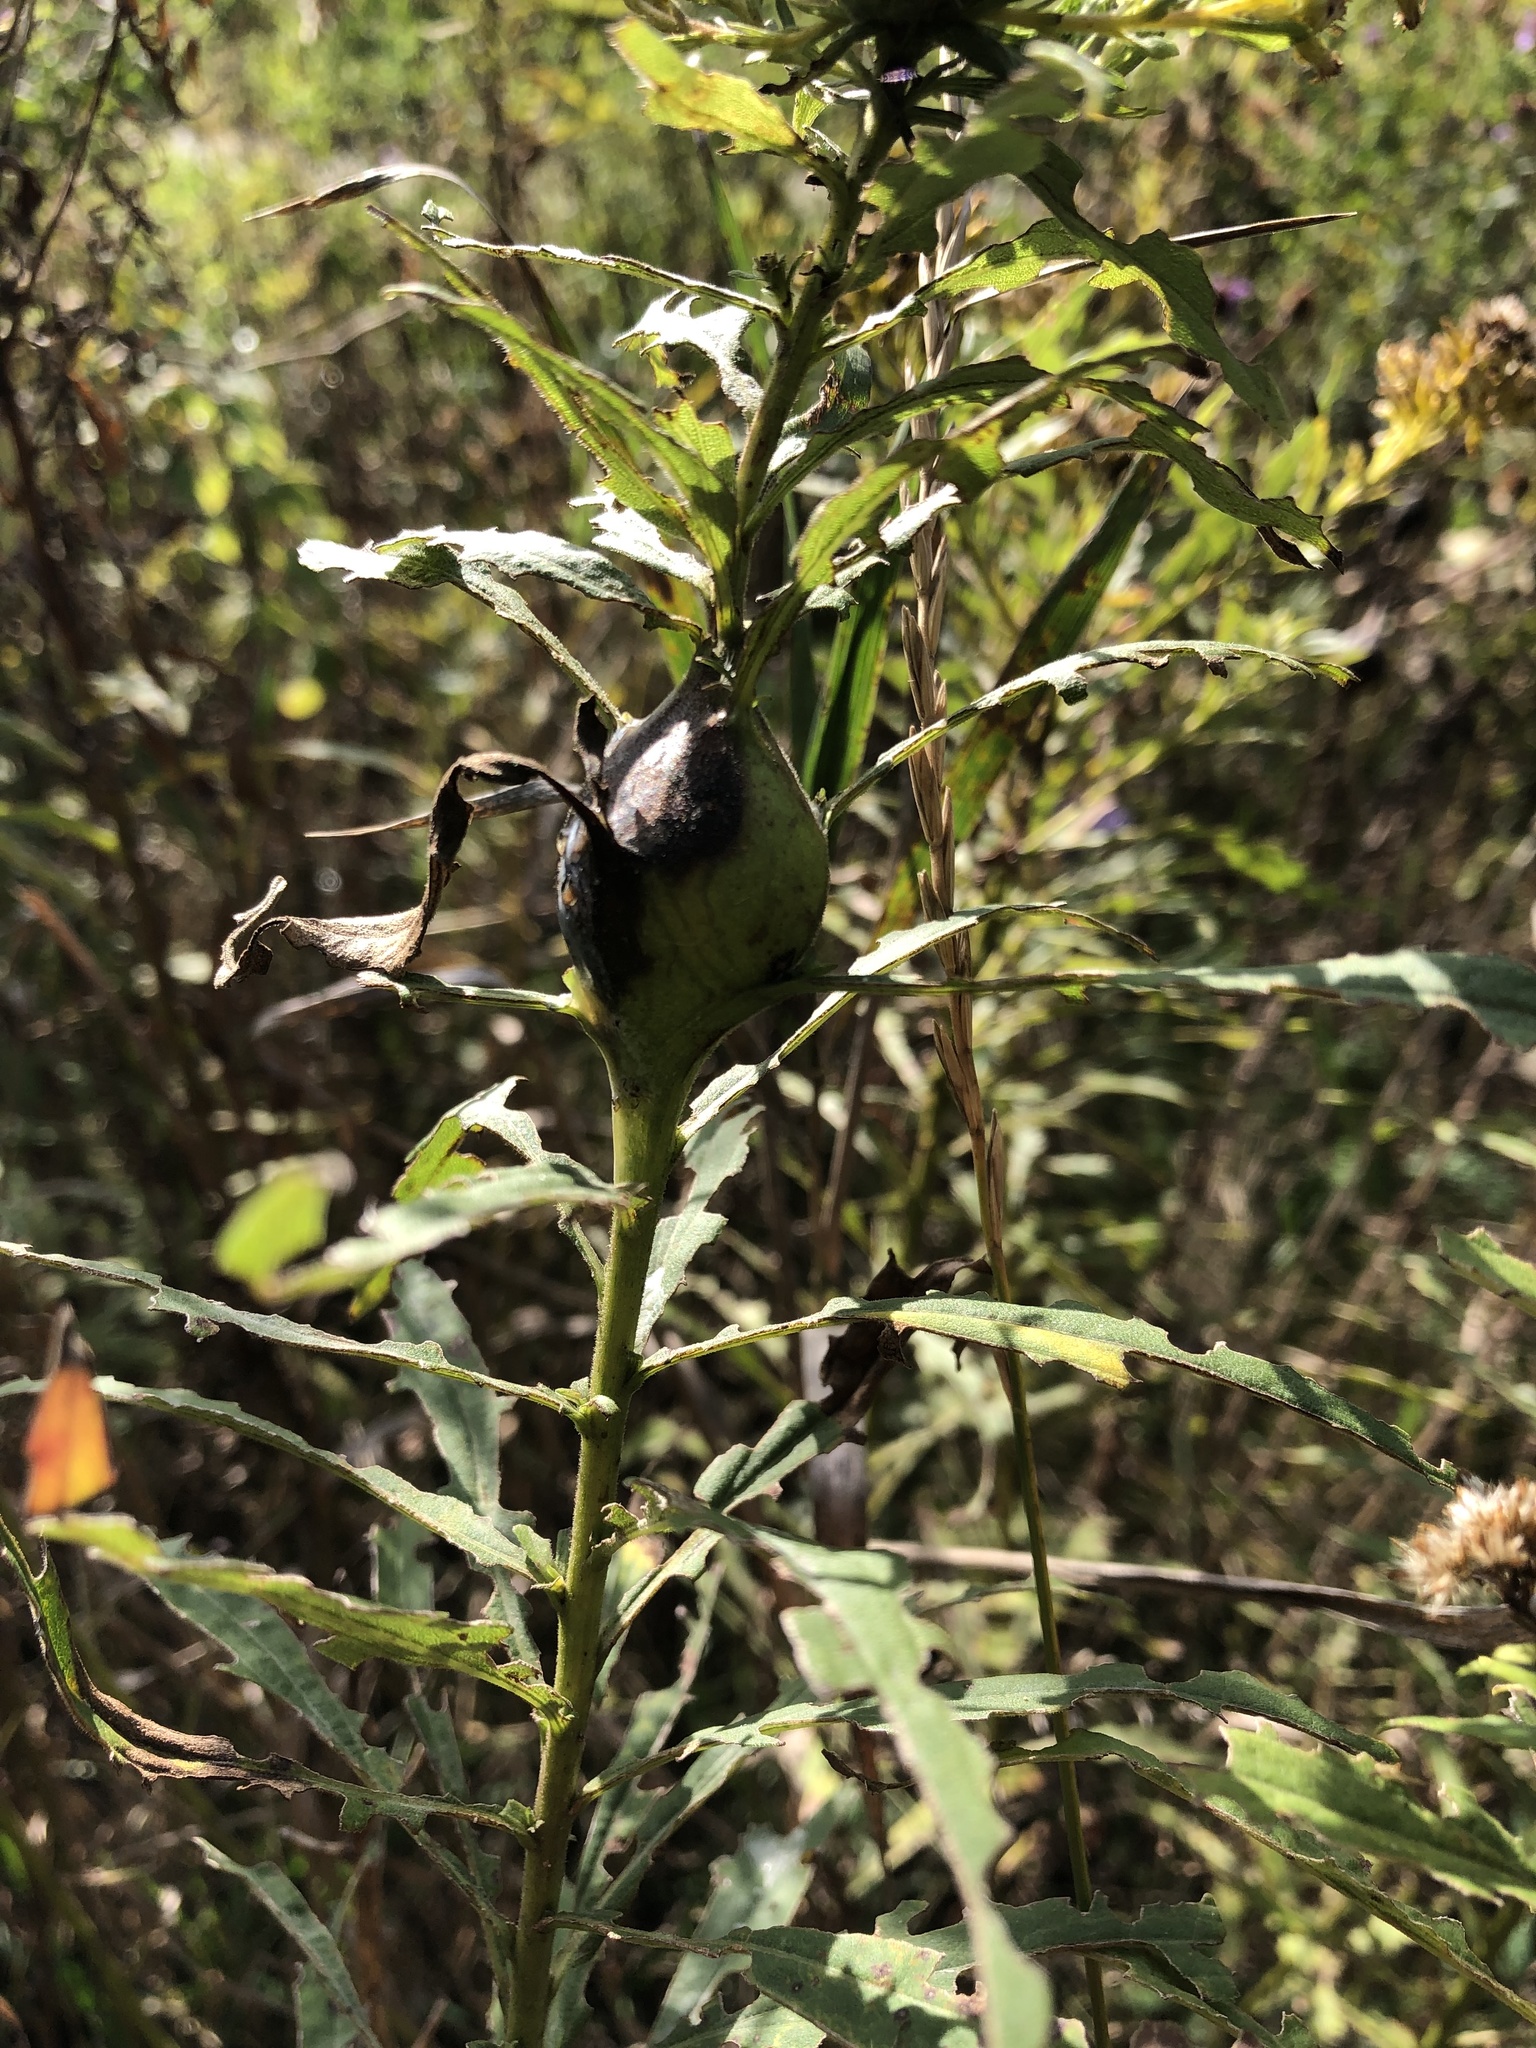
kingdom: Animalia
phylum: Arthropoda
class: Insecta
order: Diptera
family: Tephritidae
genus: Eurosta
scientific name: Eurosta solidaginis
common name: Goldenrod gall fly
